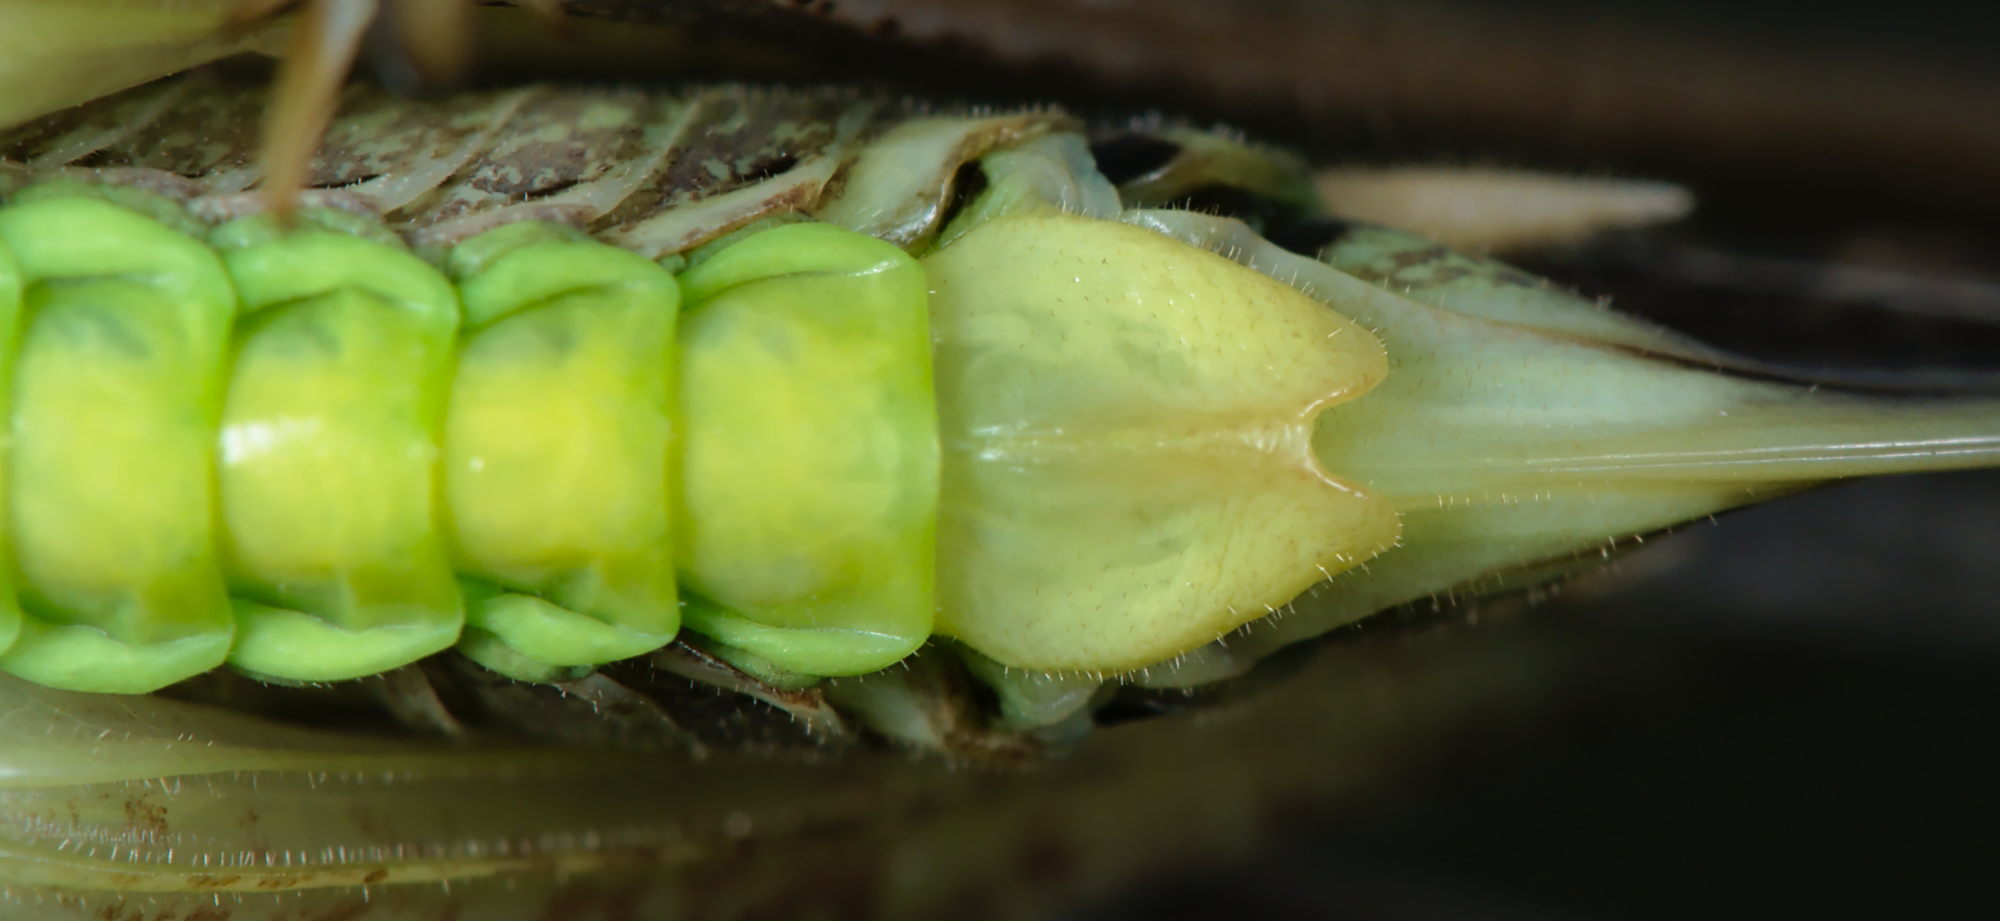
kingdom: Animalia
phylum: Arthropoda
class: Insecta
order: Orthoptera
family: Tettigoniidae
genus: Platycleis
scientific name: Platycleis albopunctata
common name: Grey bush-cricket
